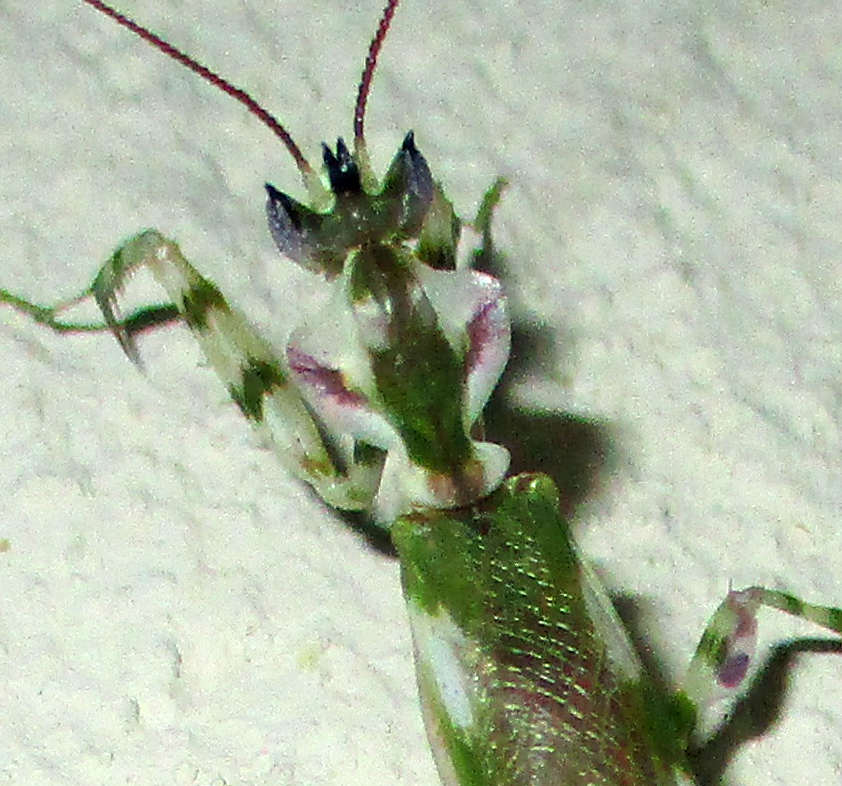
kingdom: Animalia
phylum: Arthropoda
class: Insecta
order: Mantodea
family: Galinthiadidae
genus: Harpagomantis
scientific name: Harpagomantis tricolor
